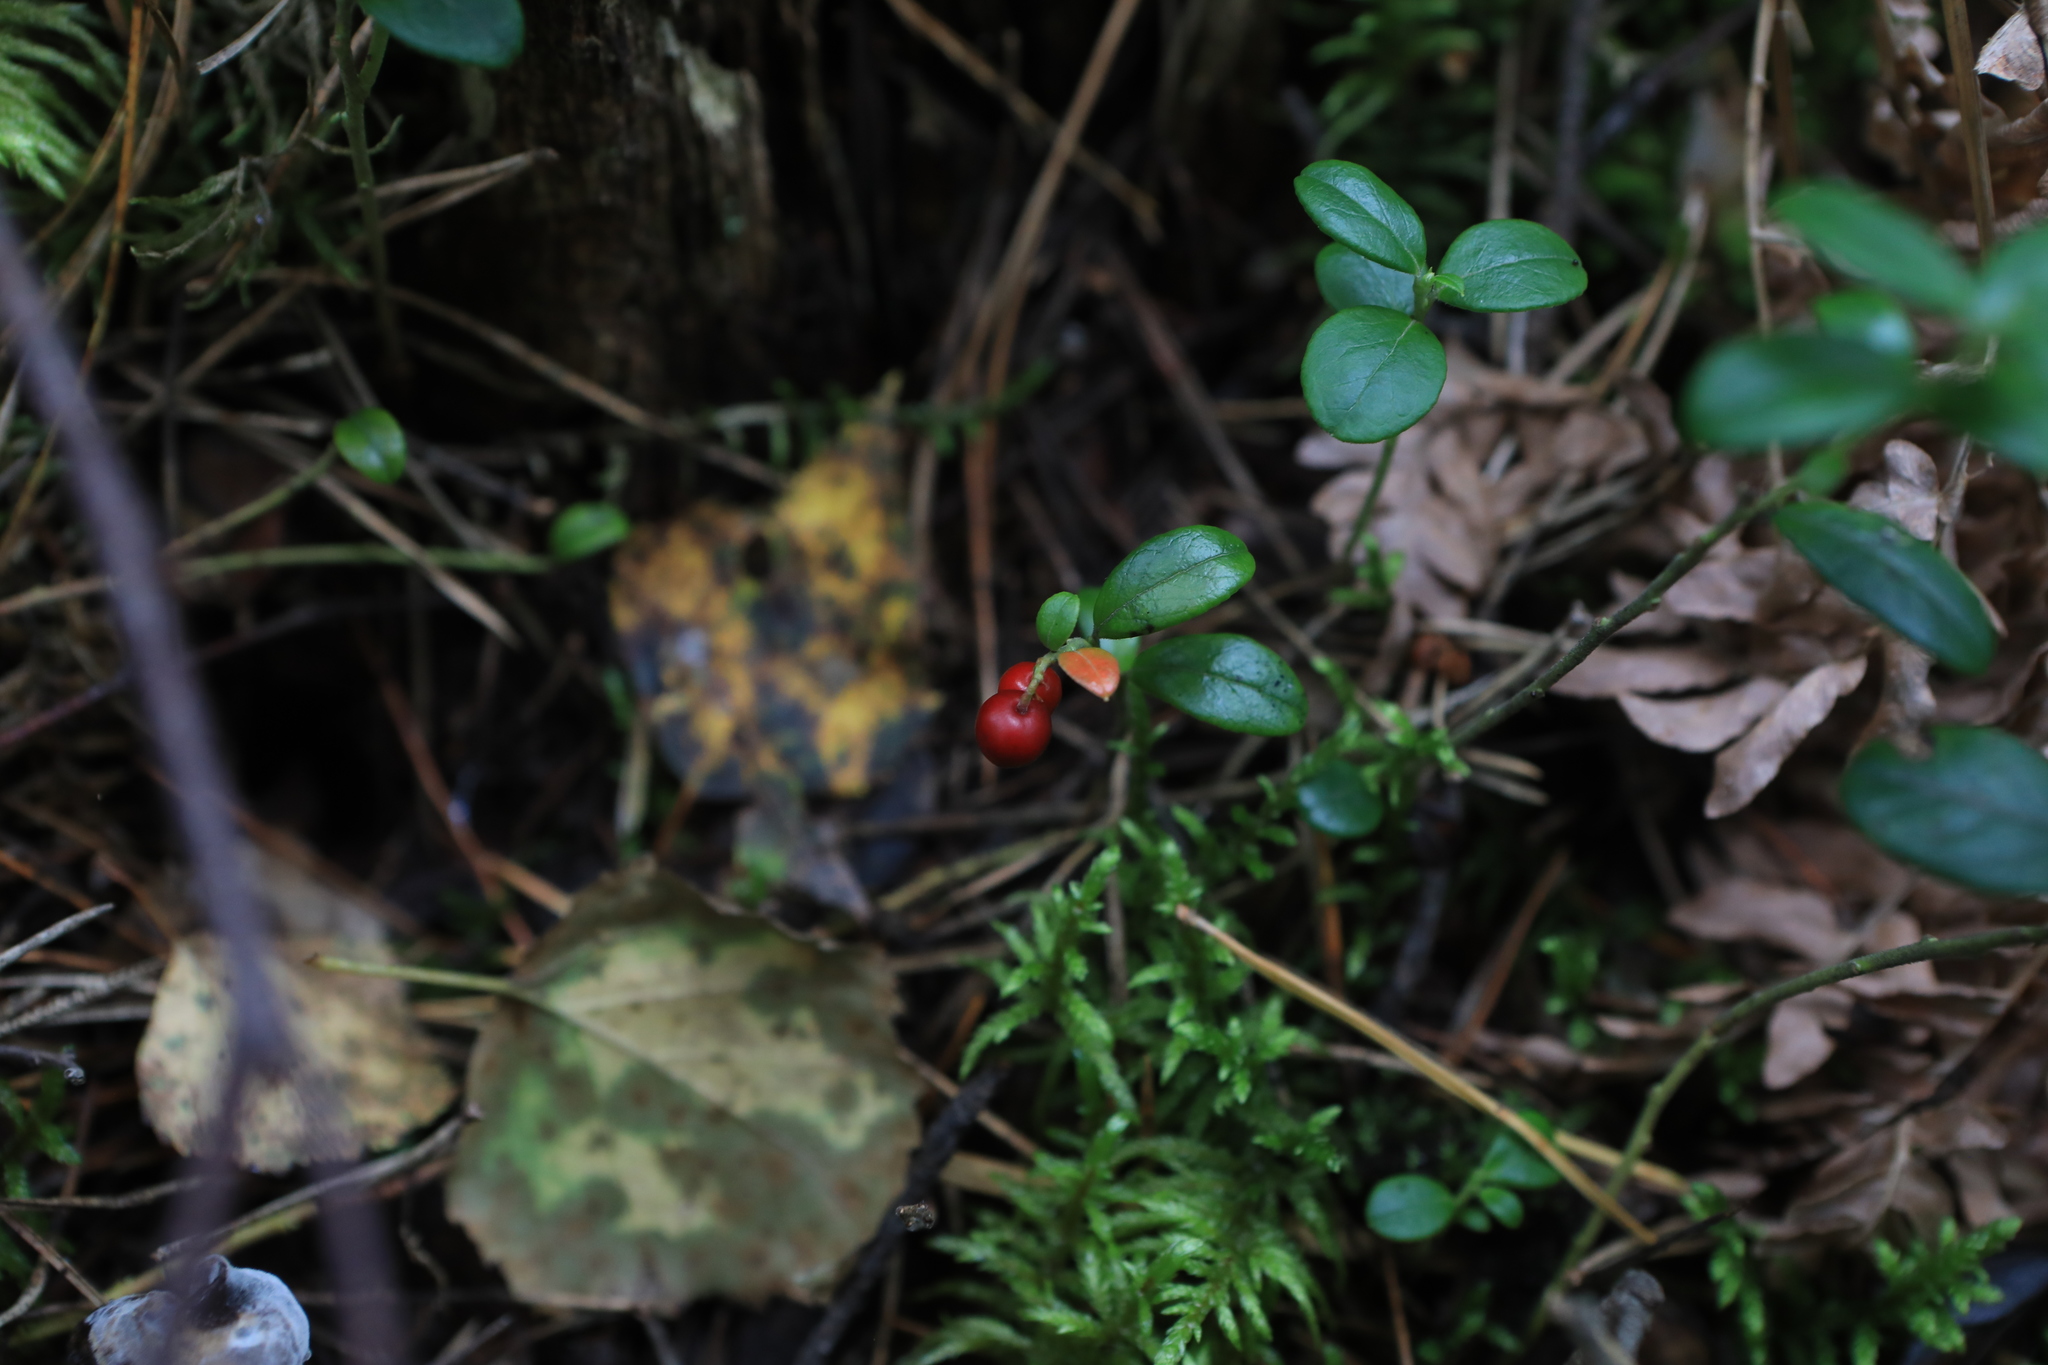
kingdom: Plantae
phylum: Tracheophyta
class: Magnoliopsida
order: Ericales
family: Ericaceae
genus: Vaccinium
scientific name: Vaccinium vitis-idaea
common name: Cowberry
